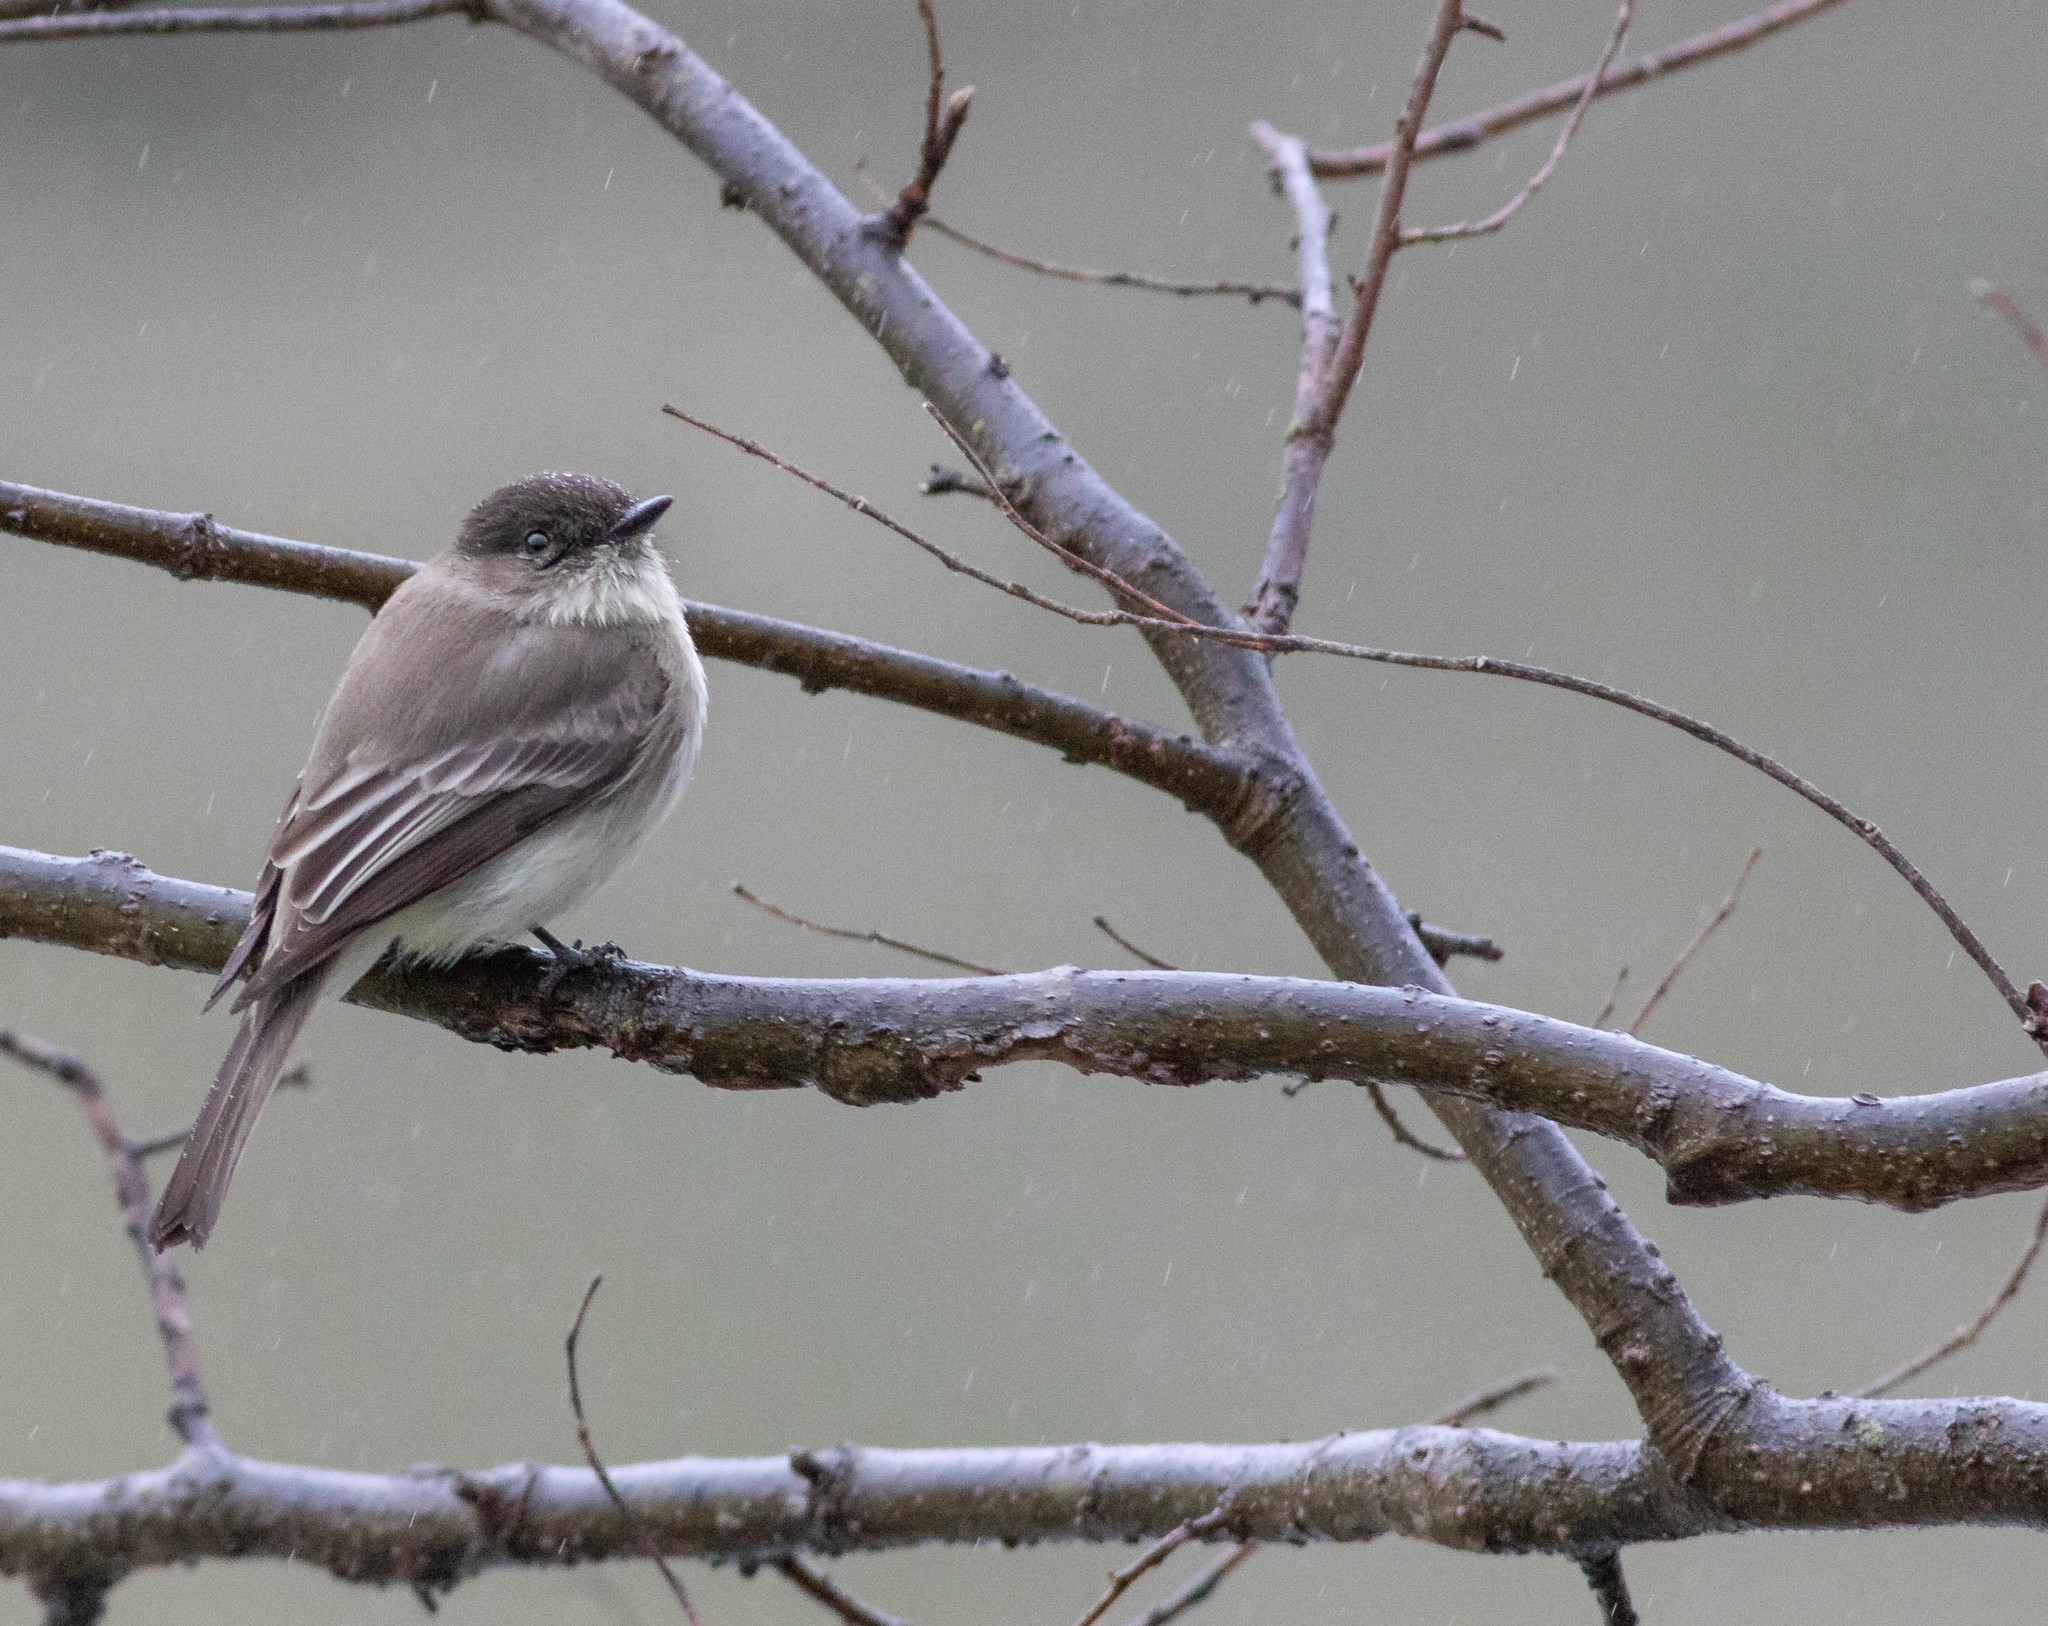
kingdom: Animalia
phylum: Chordata
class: Aves
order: Passeriformes
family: Tyrannidae
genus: Sayornis
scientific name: Sayornis phoebe
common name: Eastern phoebe
